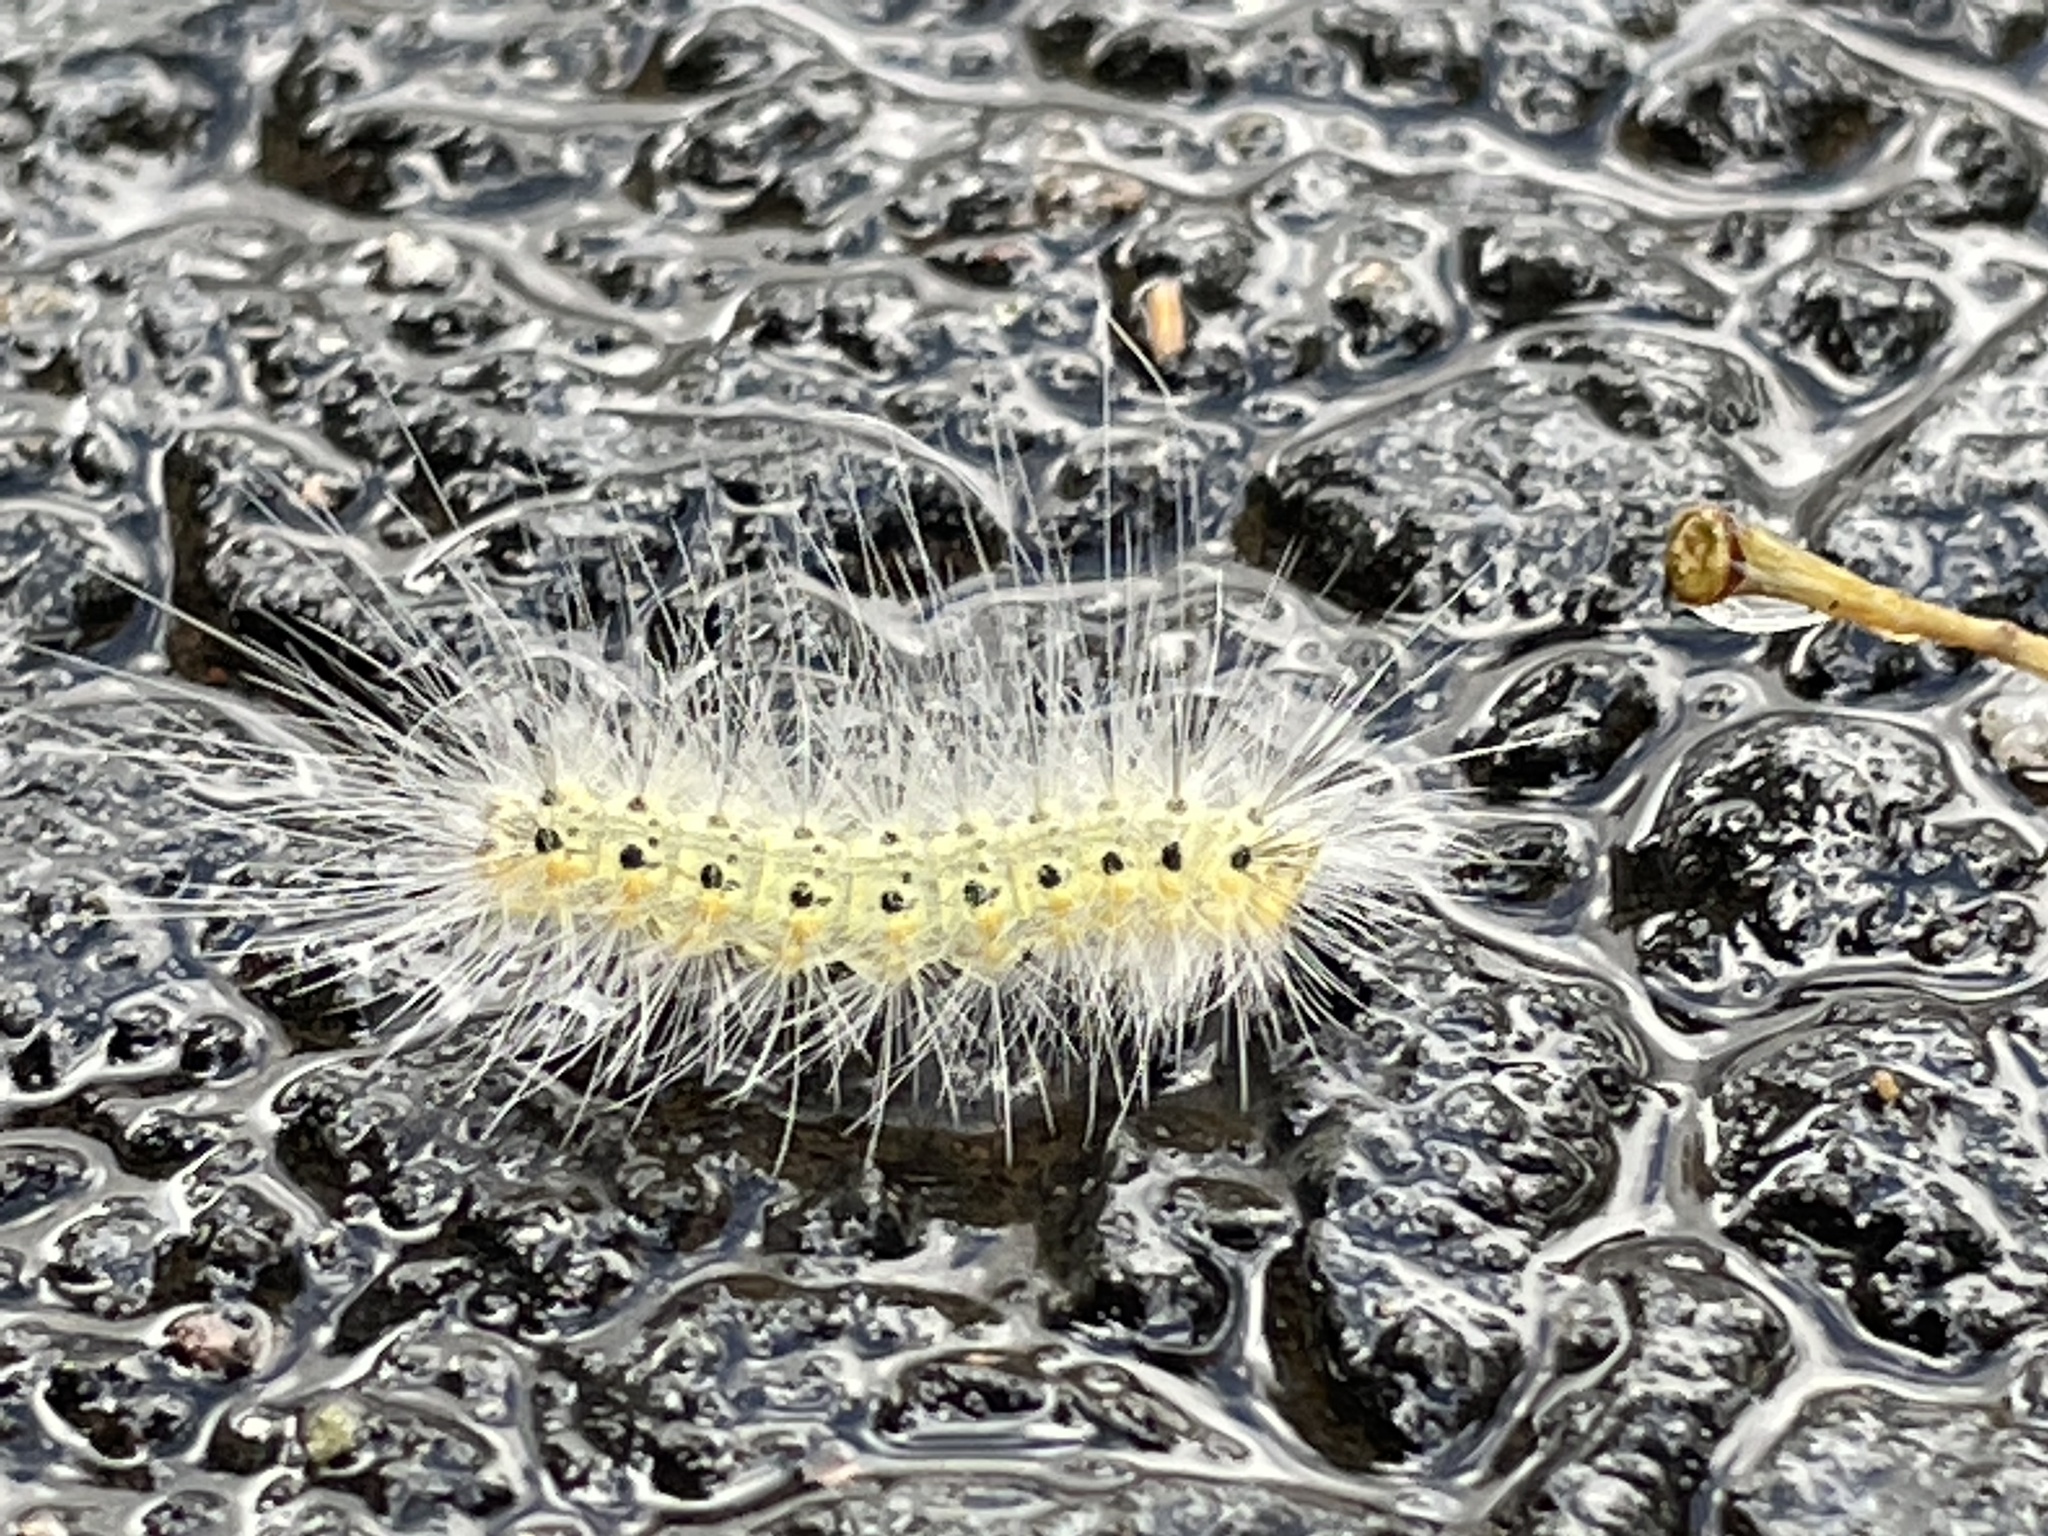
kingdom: Animalia
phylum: Arthropoda
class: Insecta
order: Lepidoptera
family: Erebidae
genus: Hyphantria
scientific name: Hyphantria cunea
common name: American white moth
